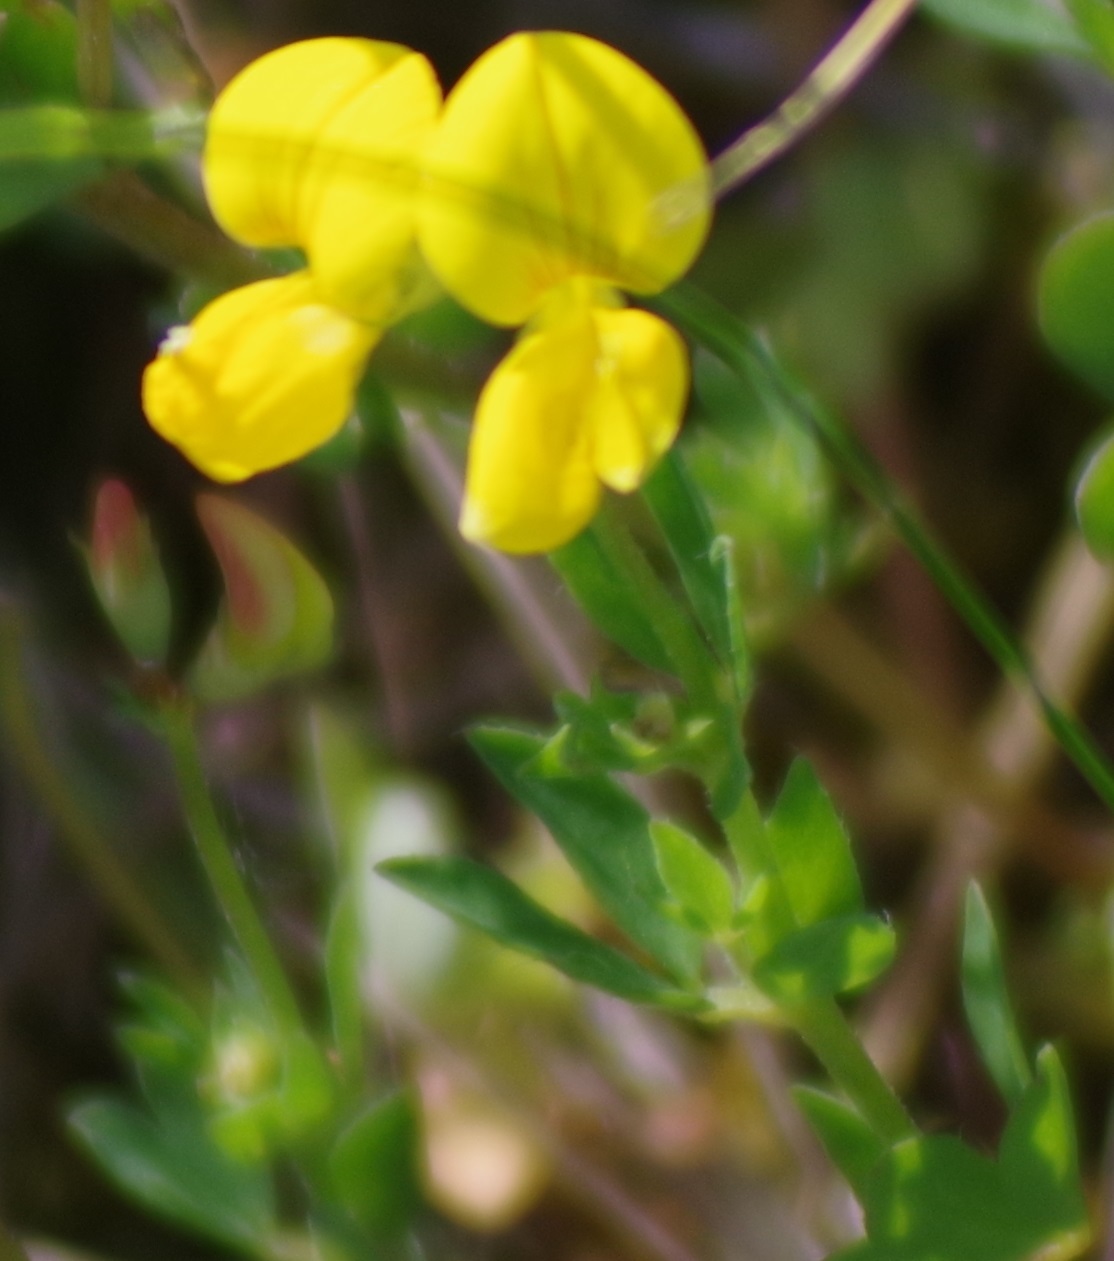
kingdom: Plantae
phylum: Tracheophyta
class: Magnoliopsida
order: Fabales
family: Fabaceae
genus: Lotus
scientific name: Lotus corniculatus
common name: Common bird's-foot-trefoil
